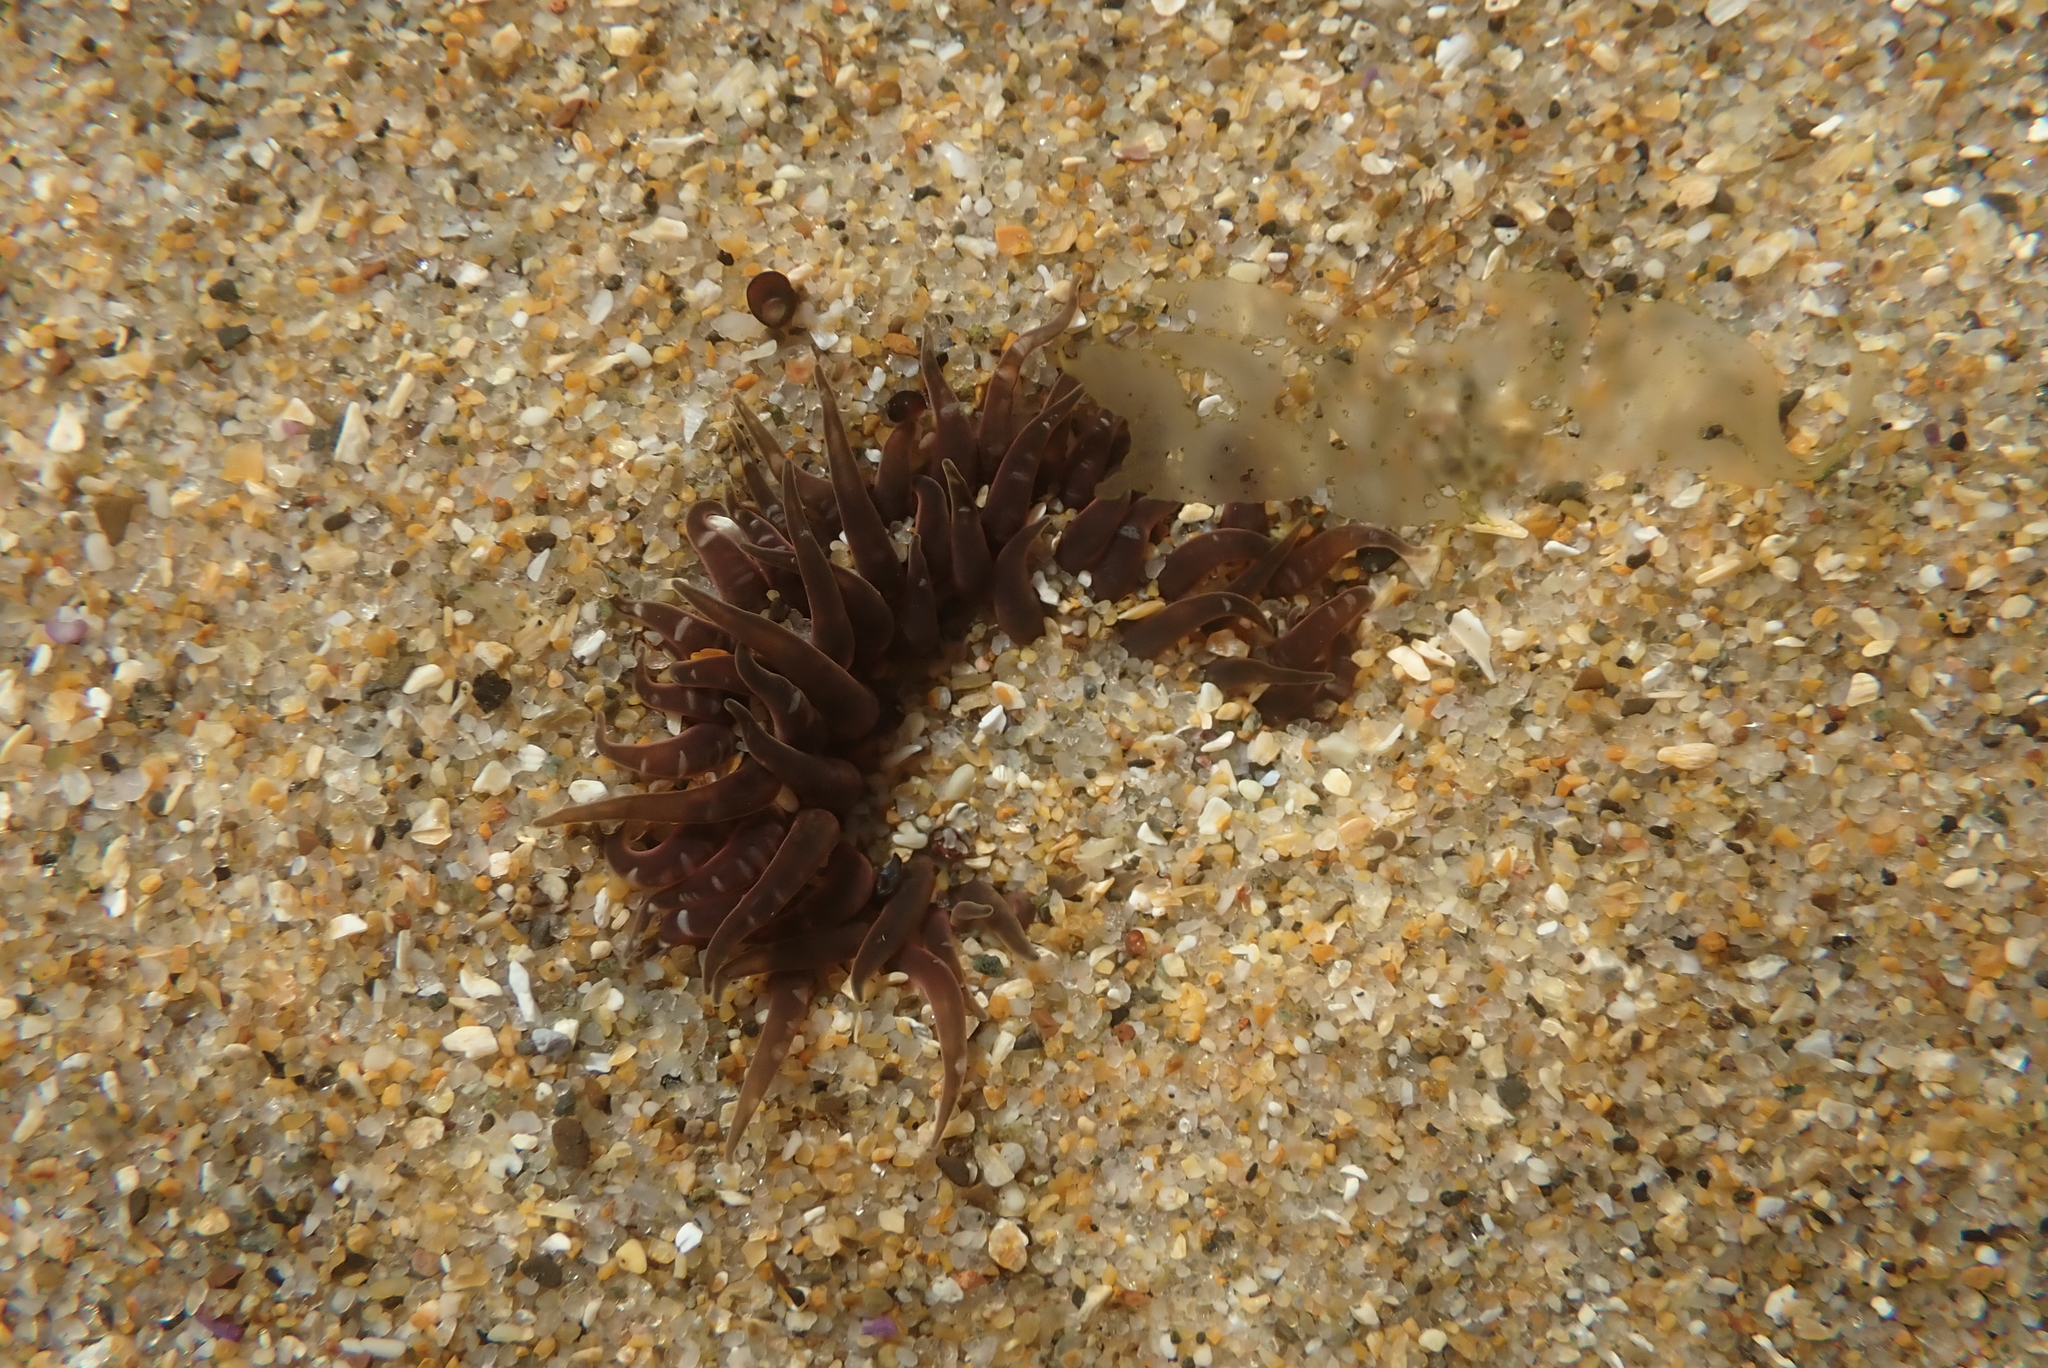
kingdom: Animalia
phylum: Cnidaria
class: Anthozoa
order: Actiniaria
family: Actiniidae
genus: Anthopleura
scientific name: Anthopleura artemisia
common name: Buried sea anemone
